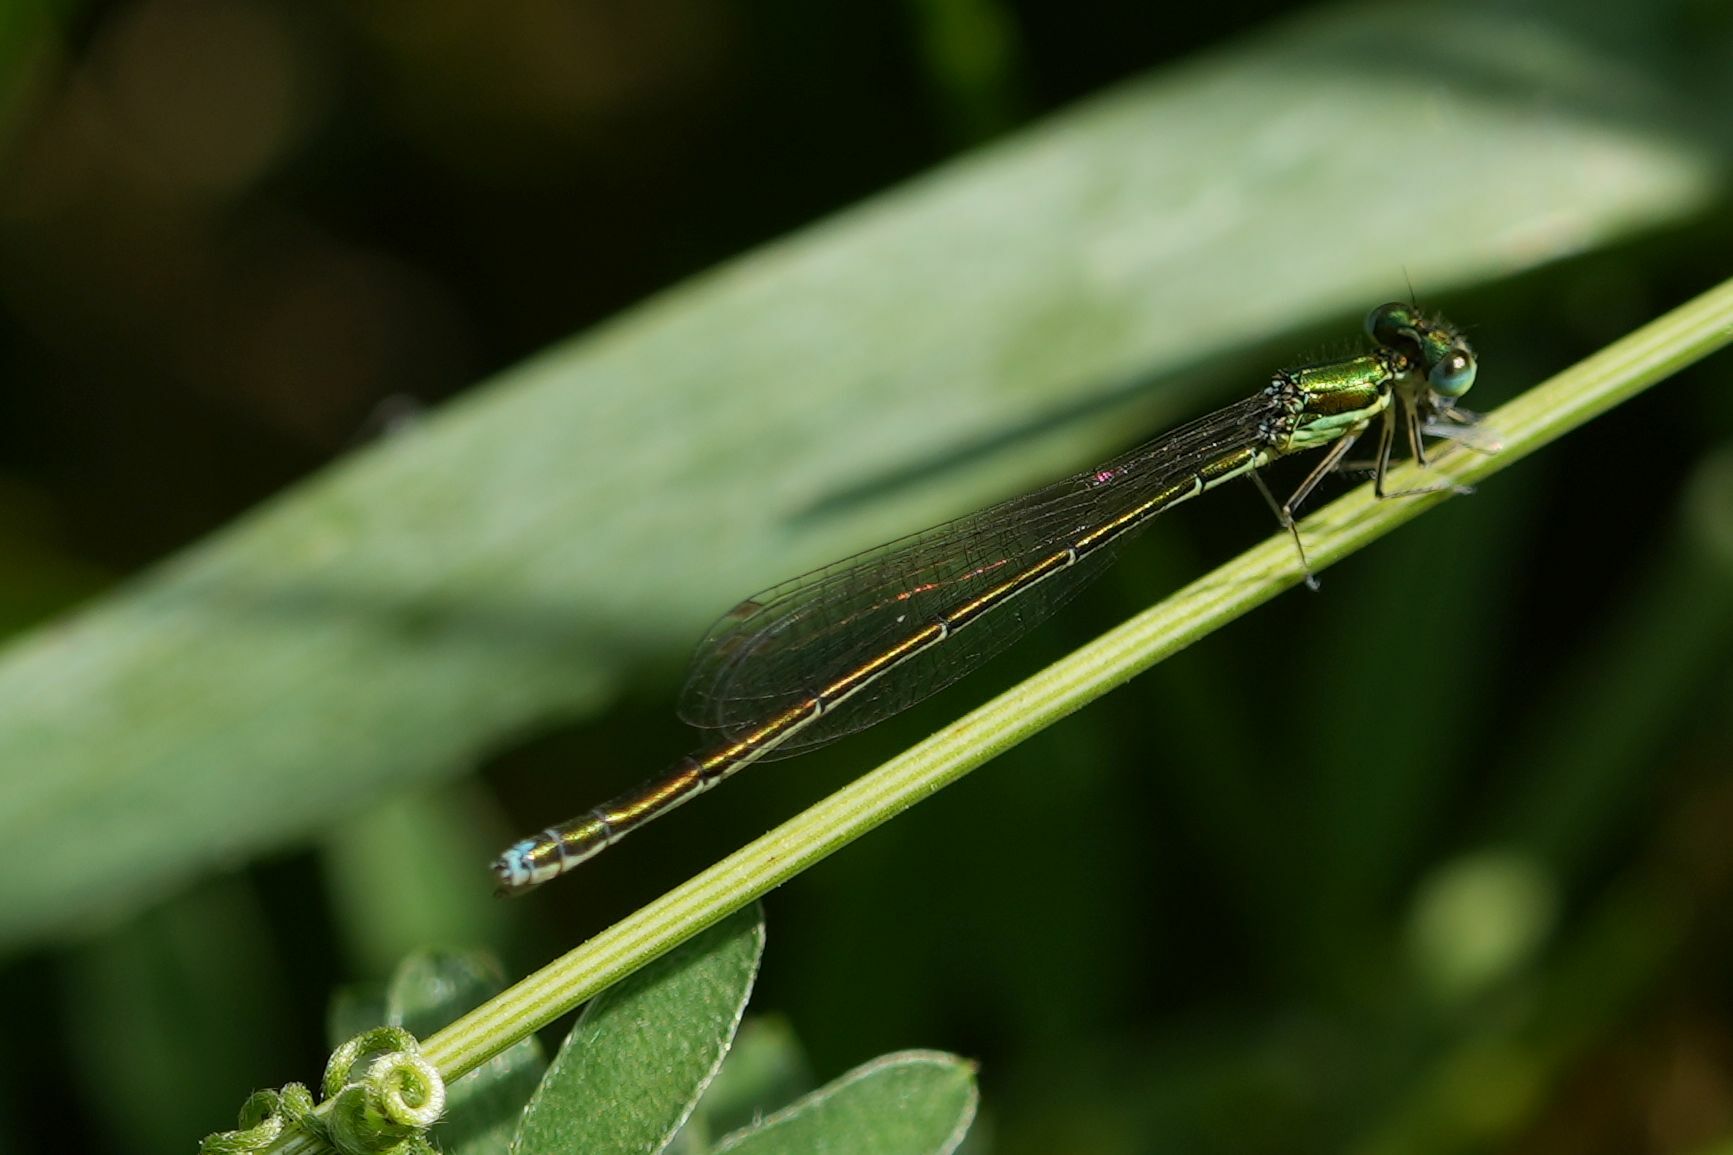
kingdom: Animalia
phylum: Arthropoda
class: Insecta
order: Odonata
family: Coenagrionidae
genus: Nehalennia
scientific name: Nehalennia irene
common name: Sedge sprite
